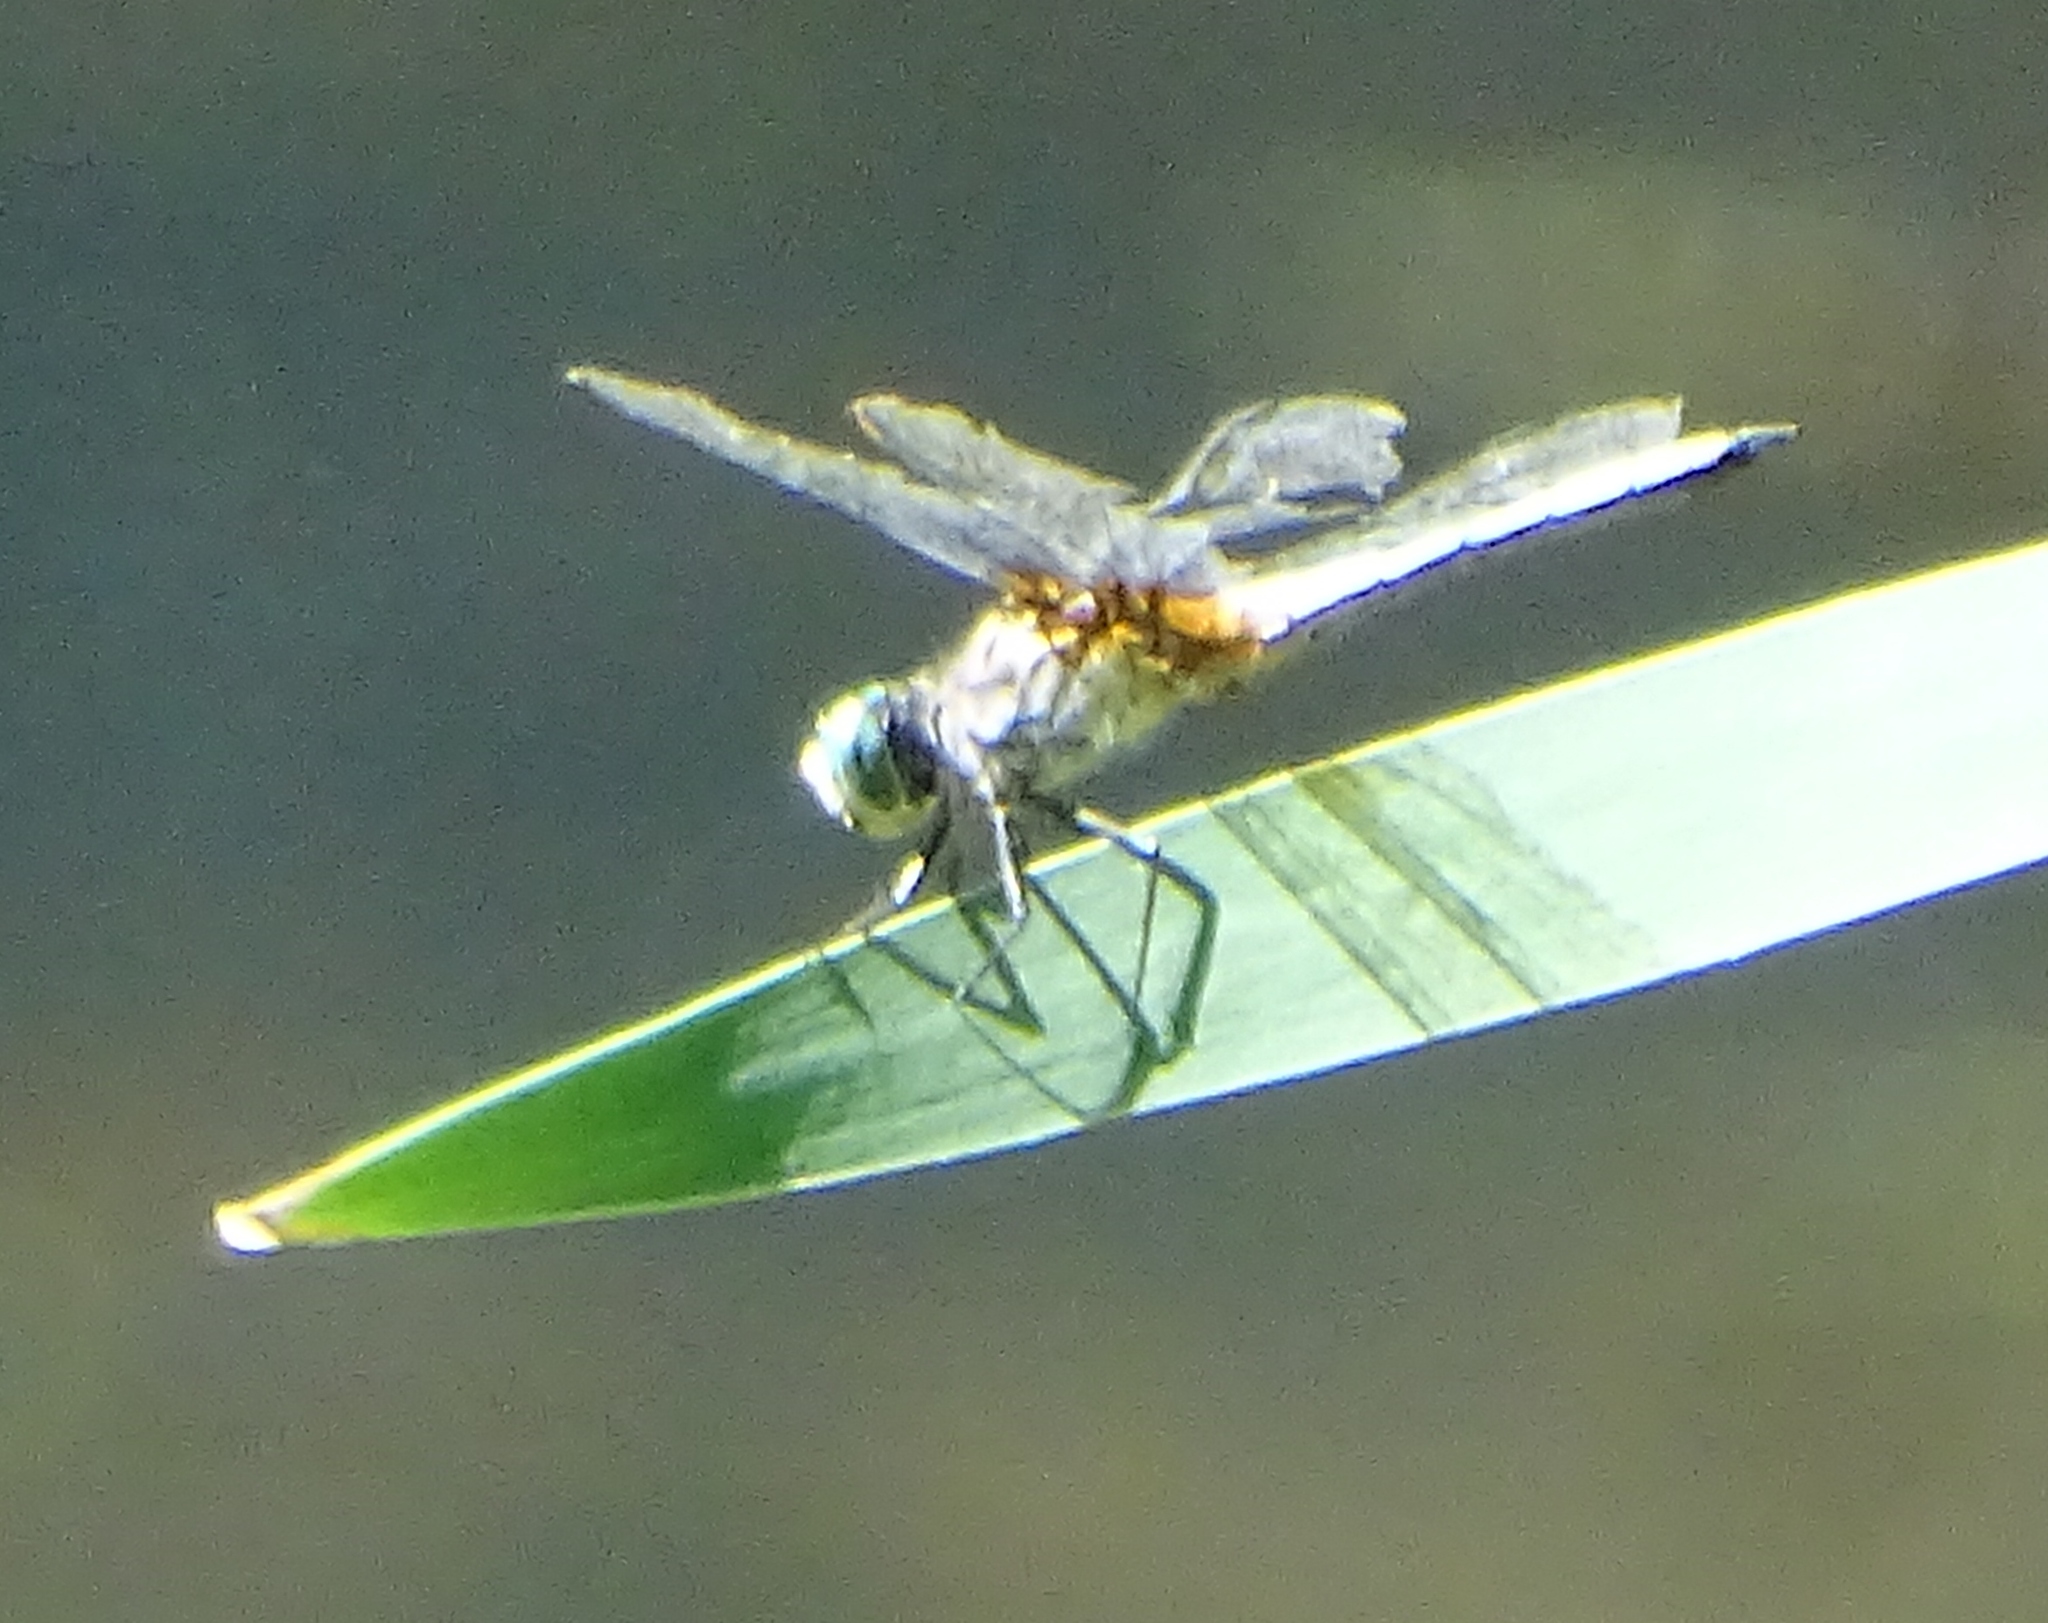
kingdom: Animalia
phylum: Arthropoda
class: Insecta
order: Odonata
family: Libellulidae
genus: Pachydiplax
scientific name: Pachydiplax longipennis
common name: Blue dasher
